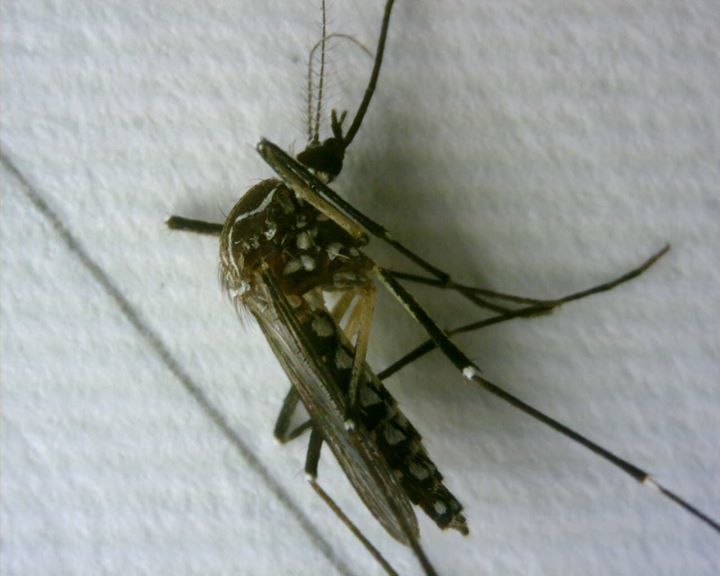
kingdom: Animalia
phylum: Arthropoda
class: Insecta
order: Diptera
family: Culicidae
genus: Aedes
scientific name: Aedes aegypti
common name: Yellow fever mosquito
